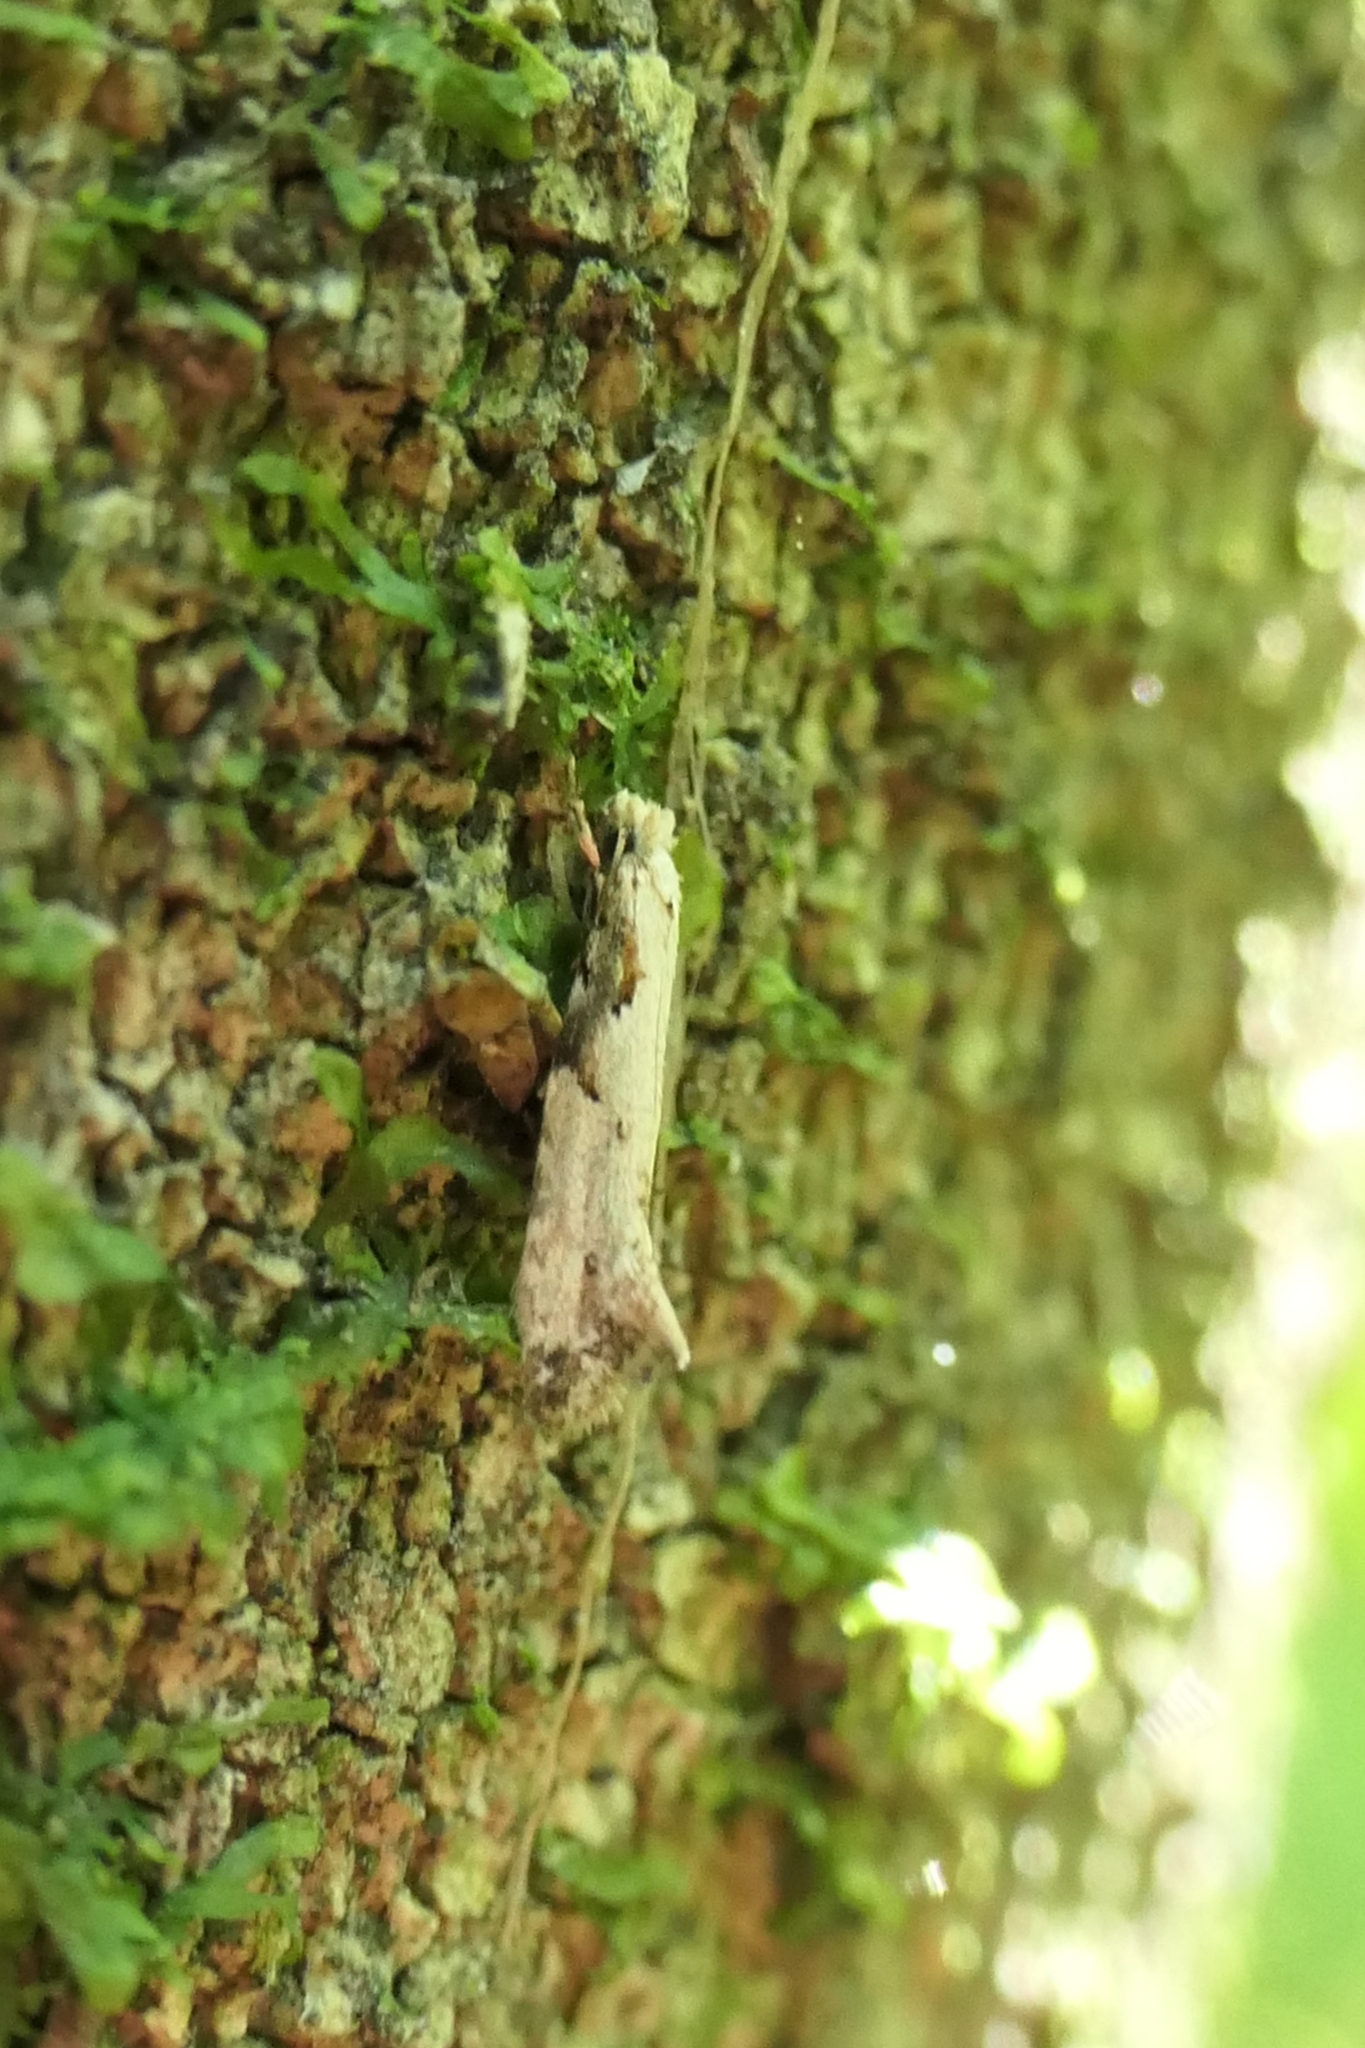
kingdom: Animalia
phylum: Arthropoda
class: Insecta
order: Lepidoptera
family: Tineidae
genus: Crypsitricha
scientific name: Crypsitricha pharotoma
